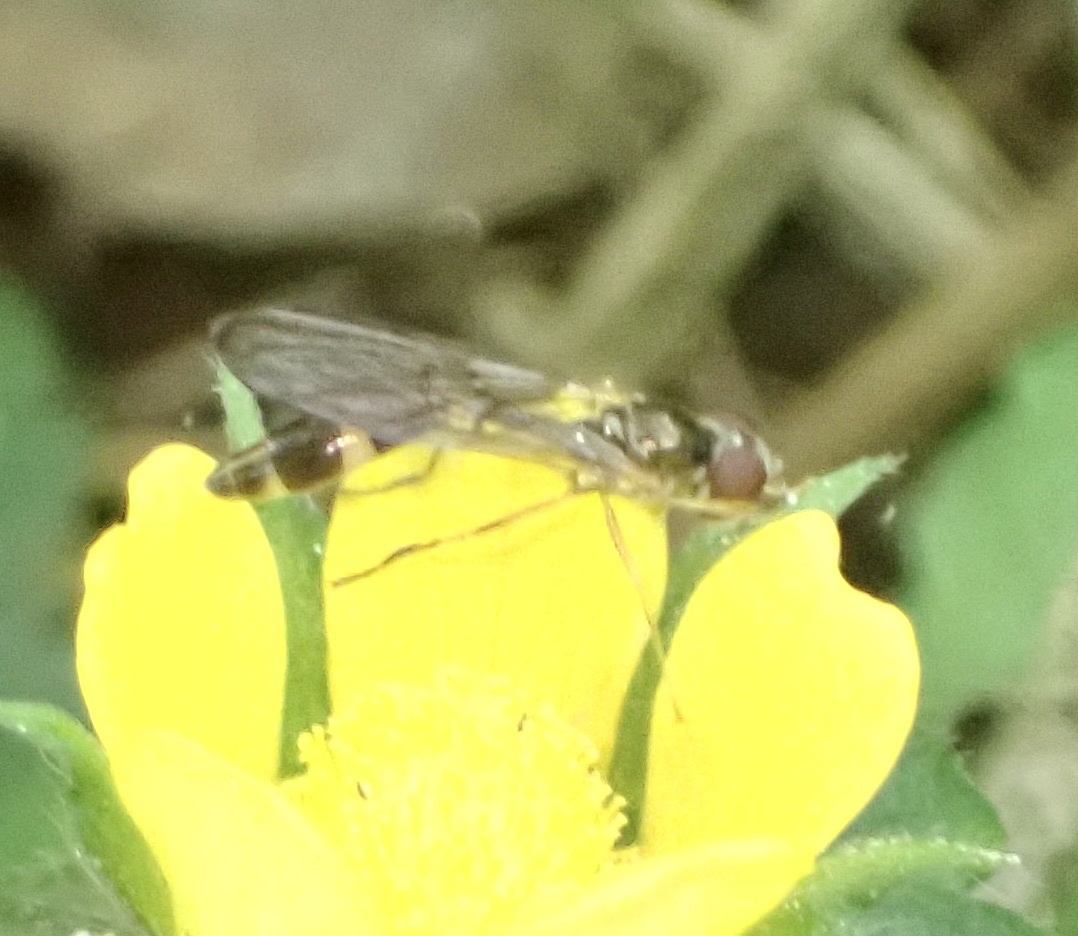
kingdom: Animalia
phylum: Arthropoda
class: Insecta
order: Diptera
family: Syrphidae
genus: Baccha
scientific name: Baccha elongata
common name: Common dainty
